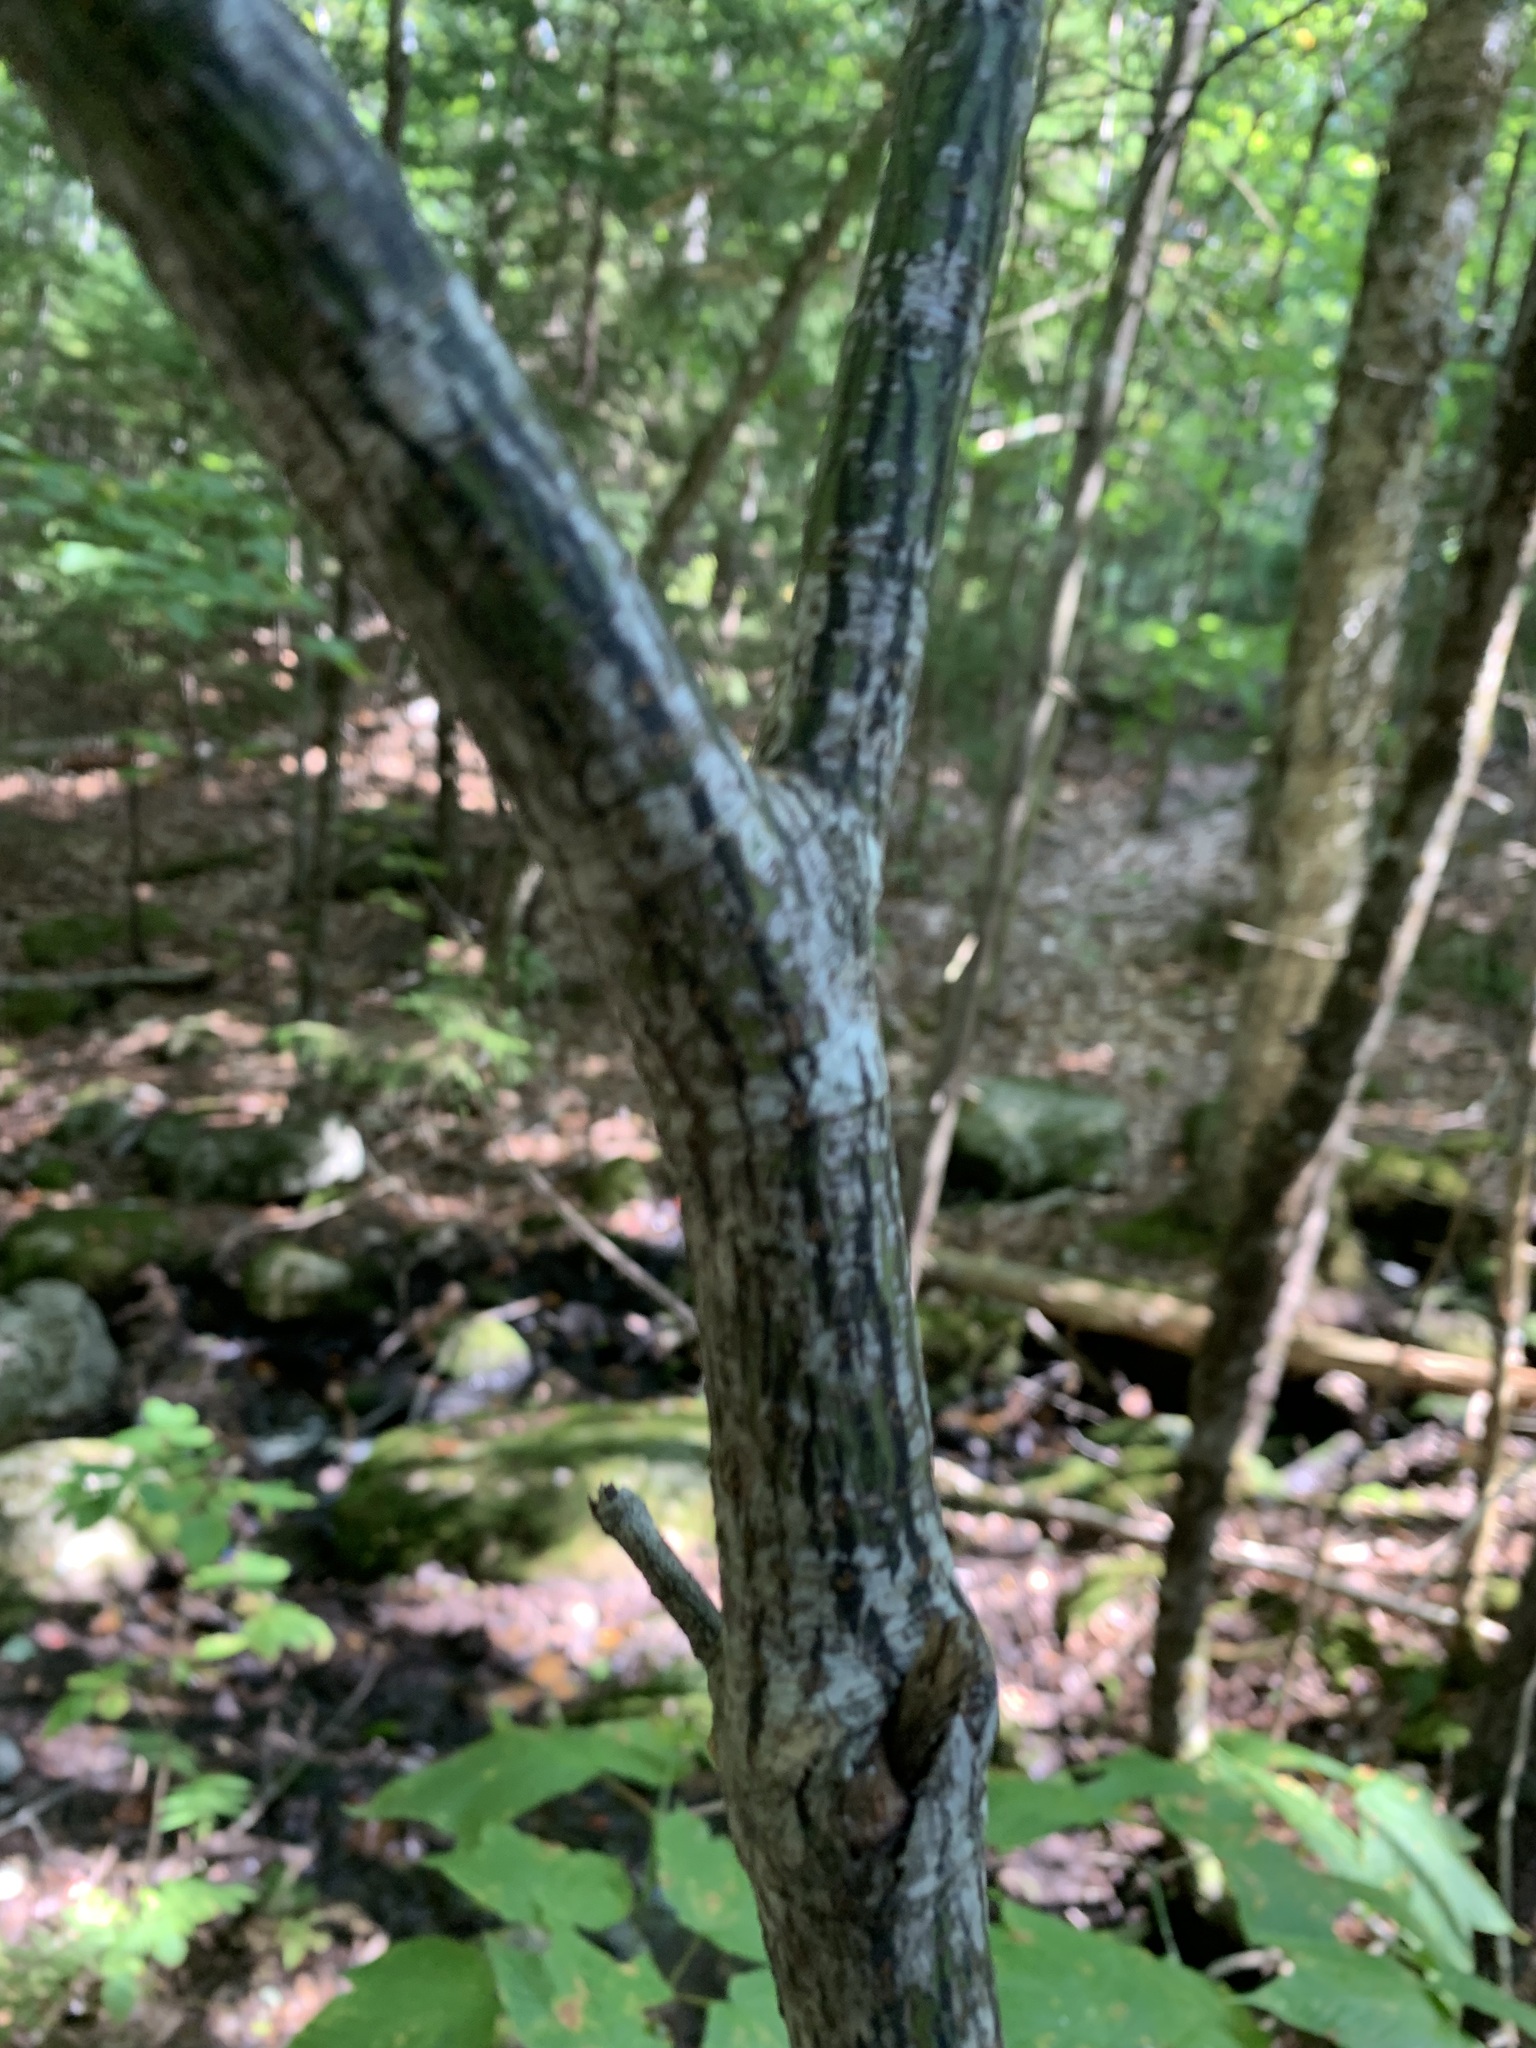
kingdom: Plantae
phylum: Tracheophyta
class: Magnoliopsida
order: Sapindales
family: Sapindaceae
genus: Acer
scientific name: Acer pensylvanicum
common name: Moosewood
